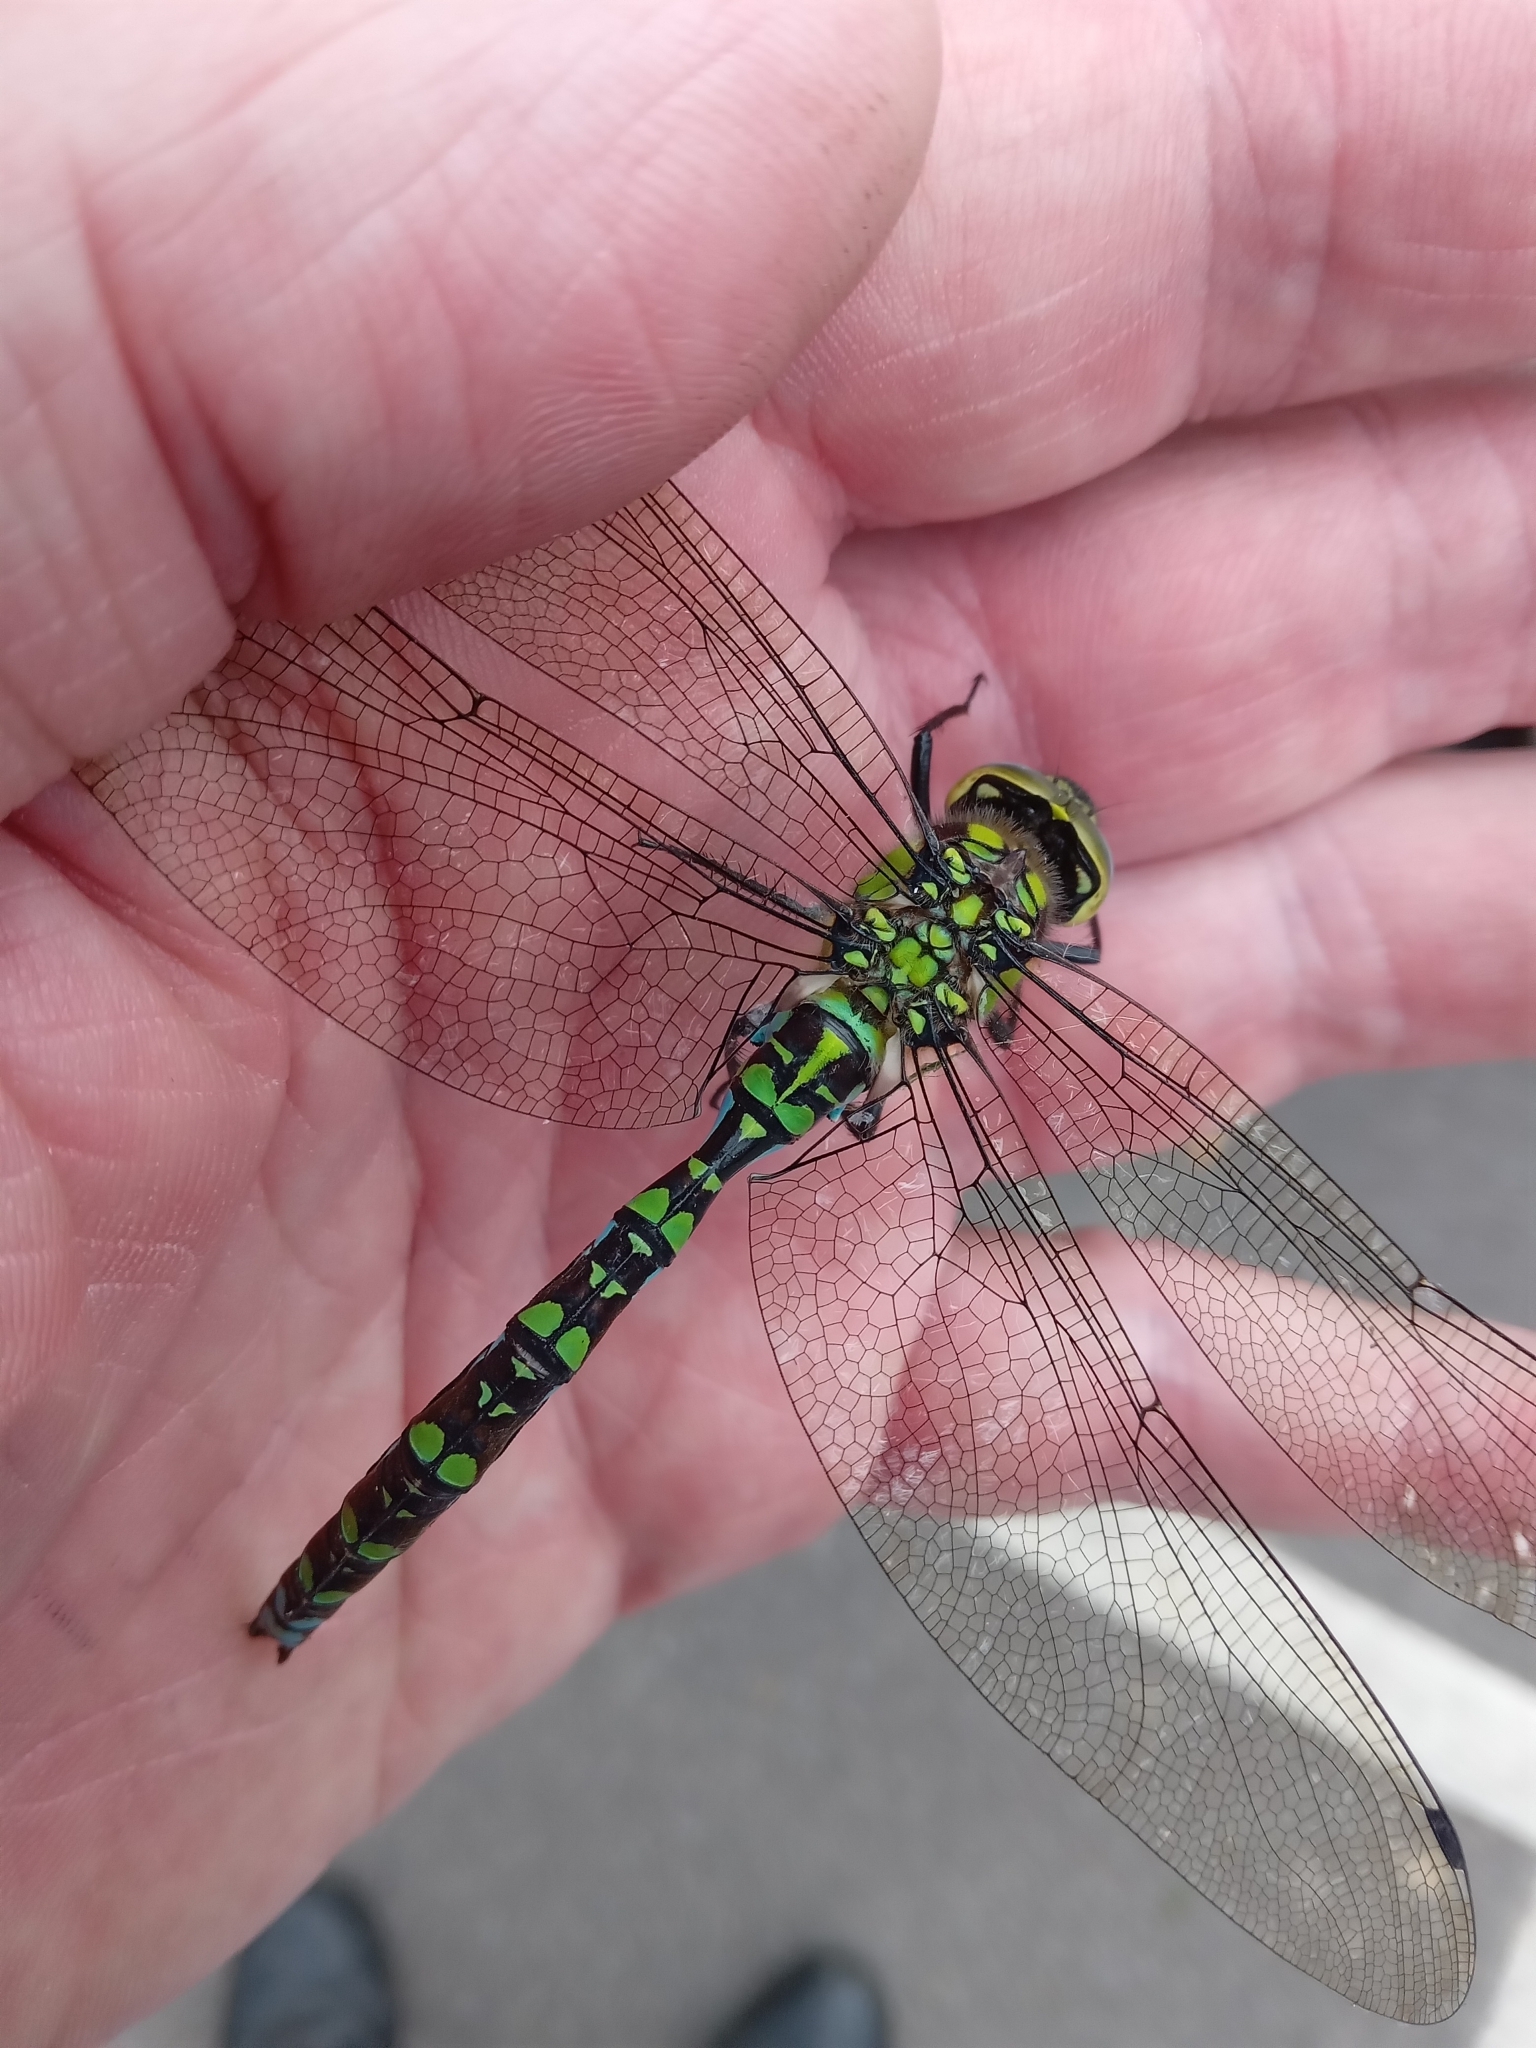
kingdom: Animalia
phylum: Arthropoda
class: Insecta
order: Odonata
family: Aeshnidae
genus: Aeshna
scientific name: Aeshna cyanea
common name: Southern hawker
